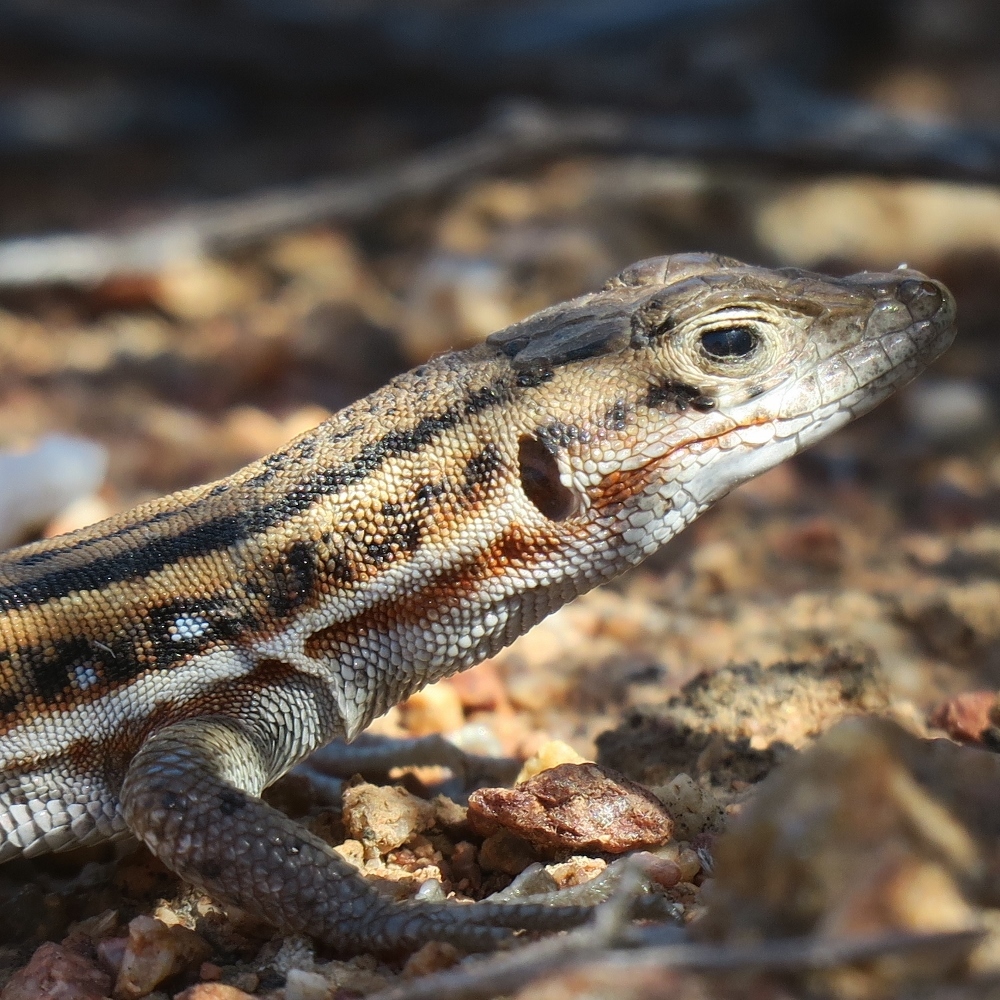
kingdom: Animalia
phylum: Chordata
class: Squamata
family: Lacertidae
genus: Pedioplanis
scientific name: Pedioplanis lineoocellata
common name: Spotted sand lizard
